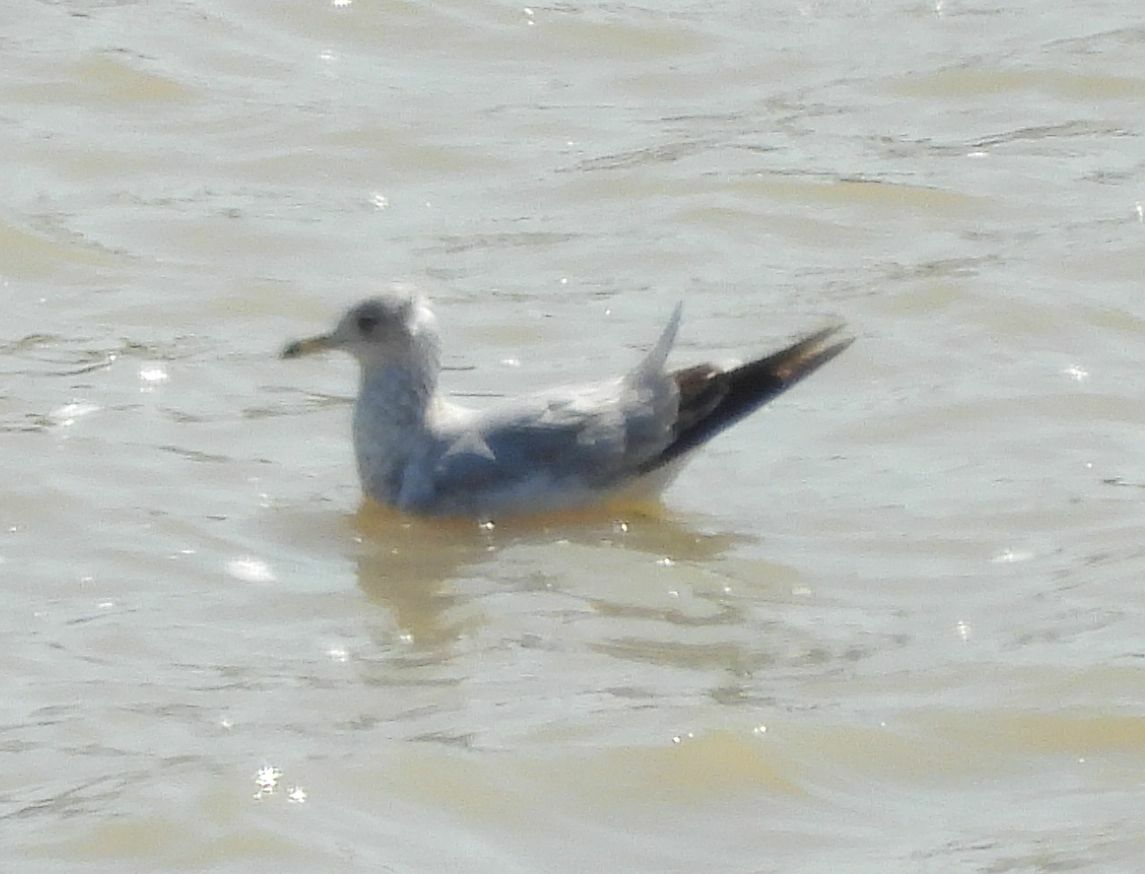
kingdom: Animalia
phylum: Chordata
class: Aves
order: Charadriiformes
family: Laridae
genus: Larus
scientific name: Larus delawarensis
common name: Ring-billed gull
